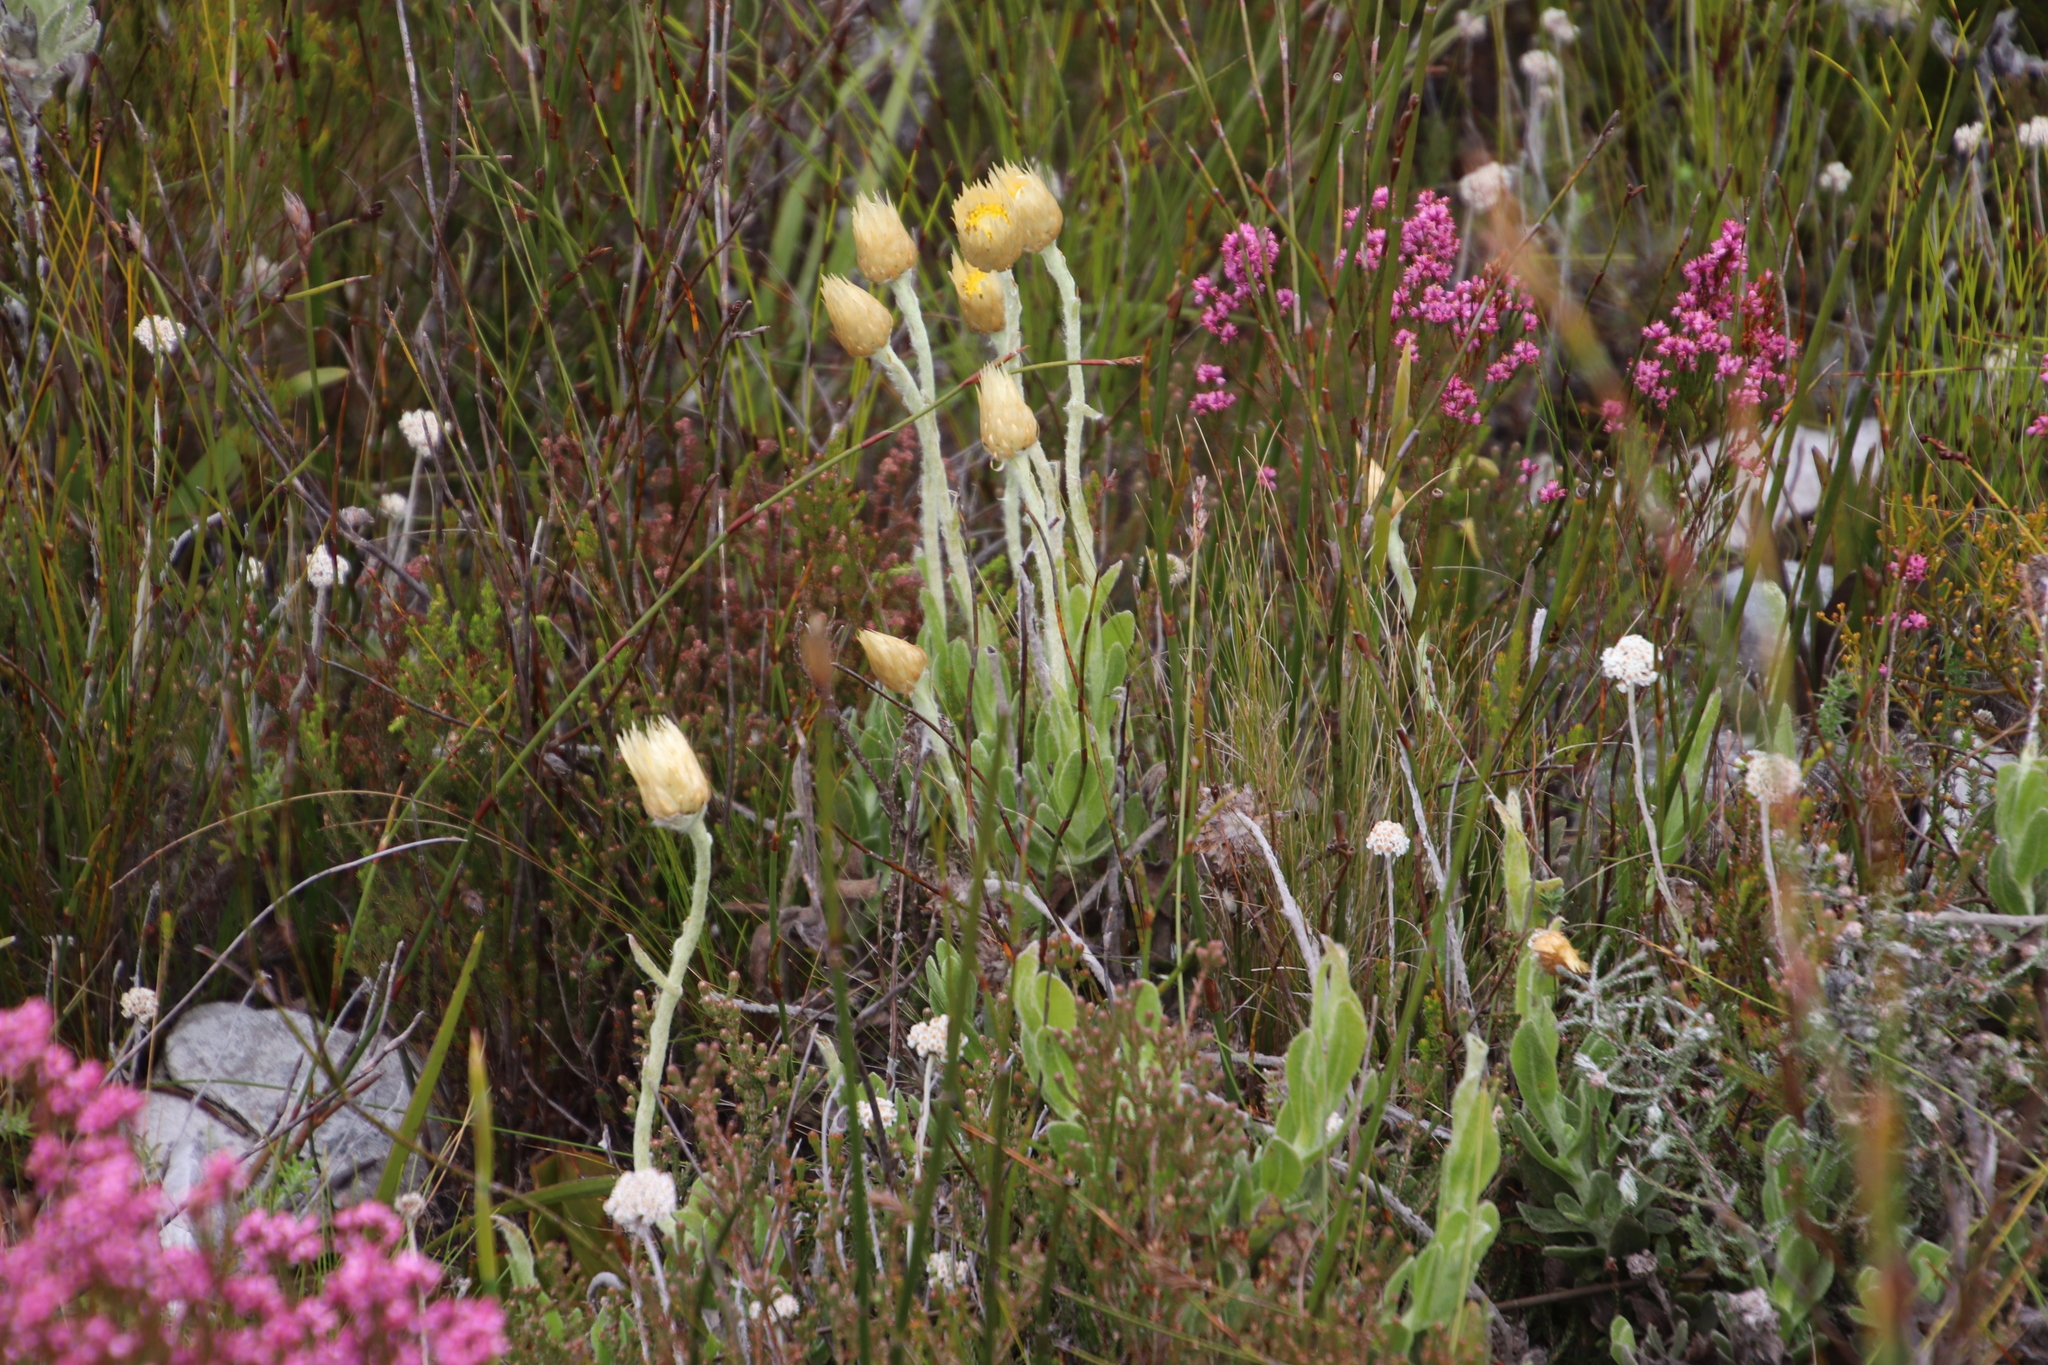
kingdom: Plantae
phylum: Tracheophyta
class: Magnoliopsida
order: Asterales
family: Asteraceae
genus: Syncarpha
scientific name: Syncarpha speciosissima
